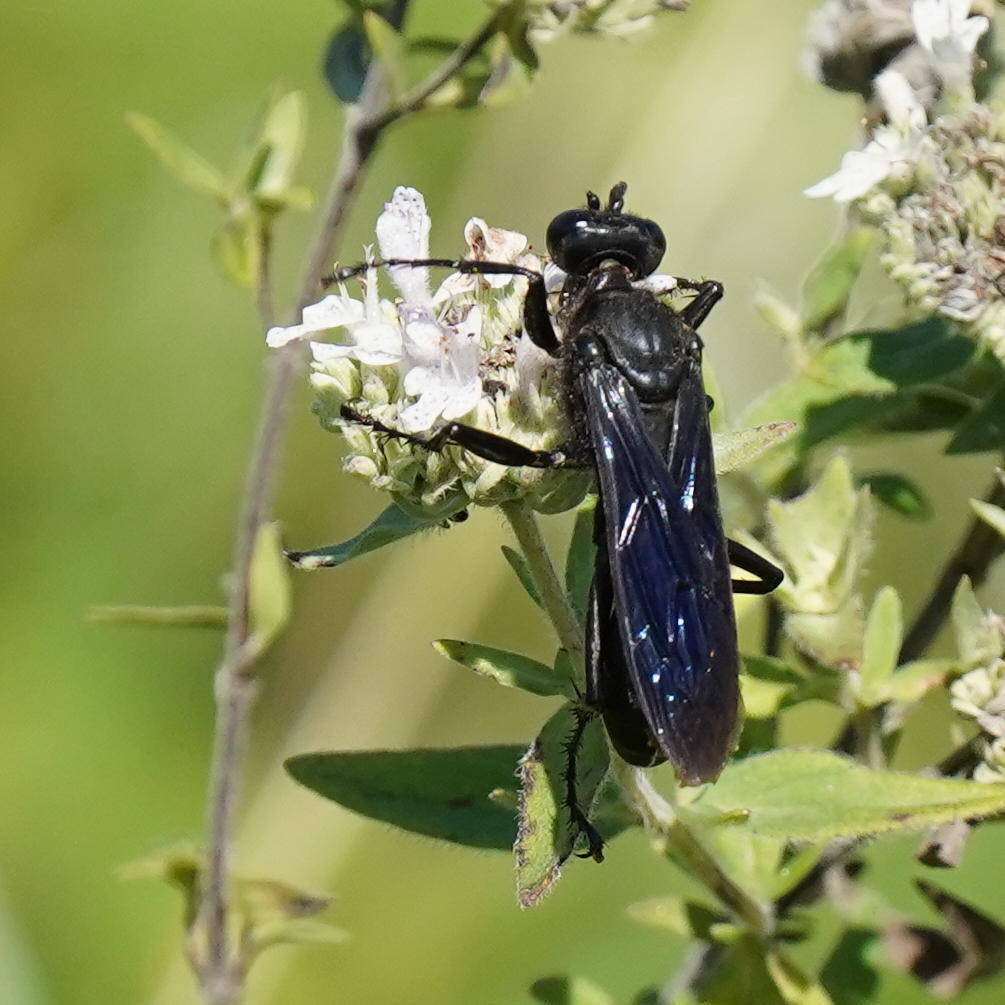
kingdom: Animalia
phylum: Arthropoda
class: Insecta
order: Hymenoptera
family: Sphecidae
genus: Sphex
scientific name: Sphex pensylvanicus
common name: Great black digger wasp
